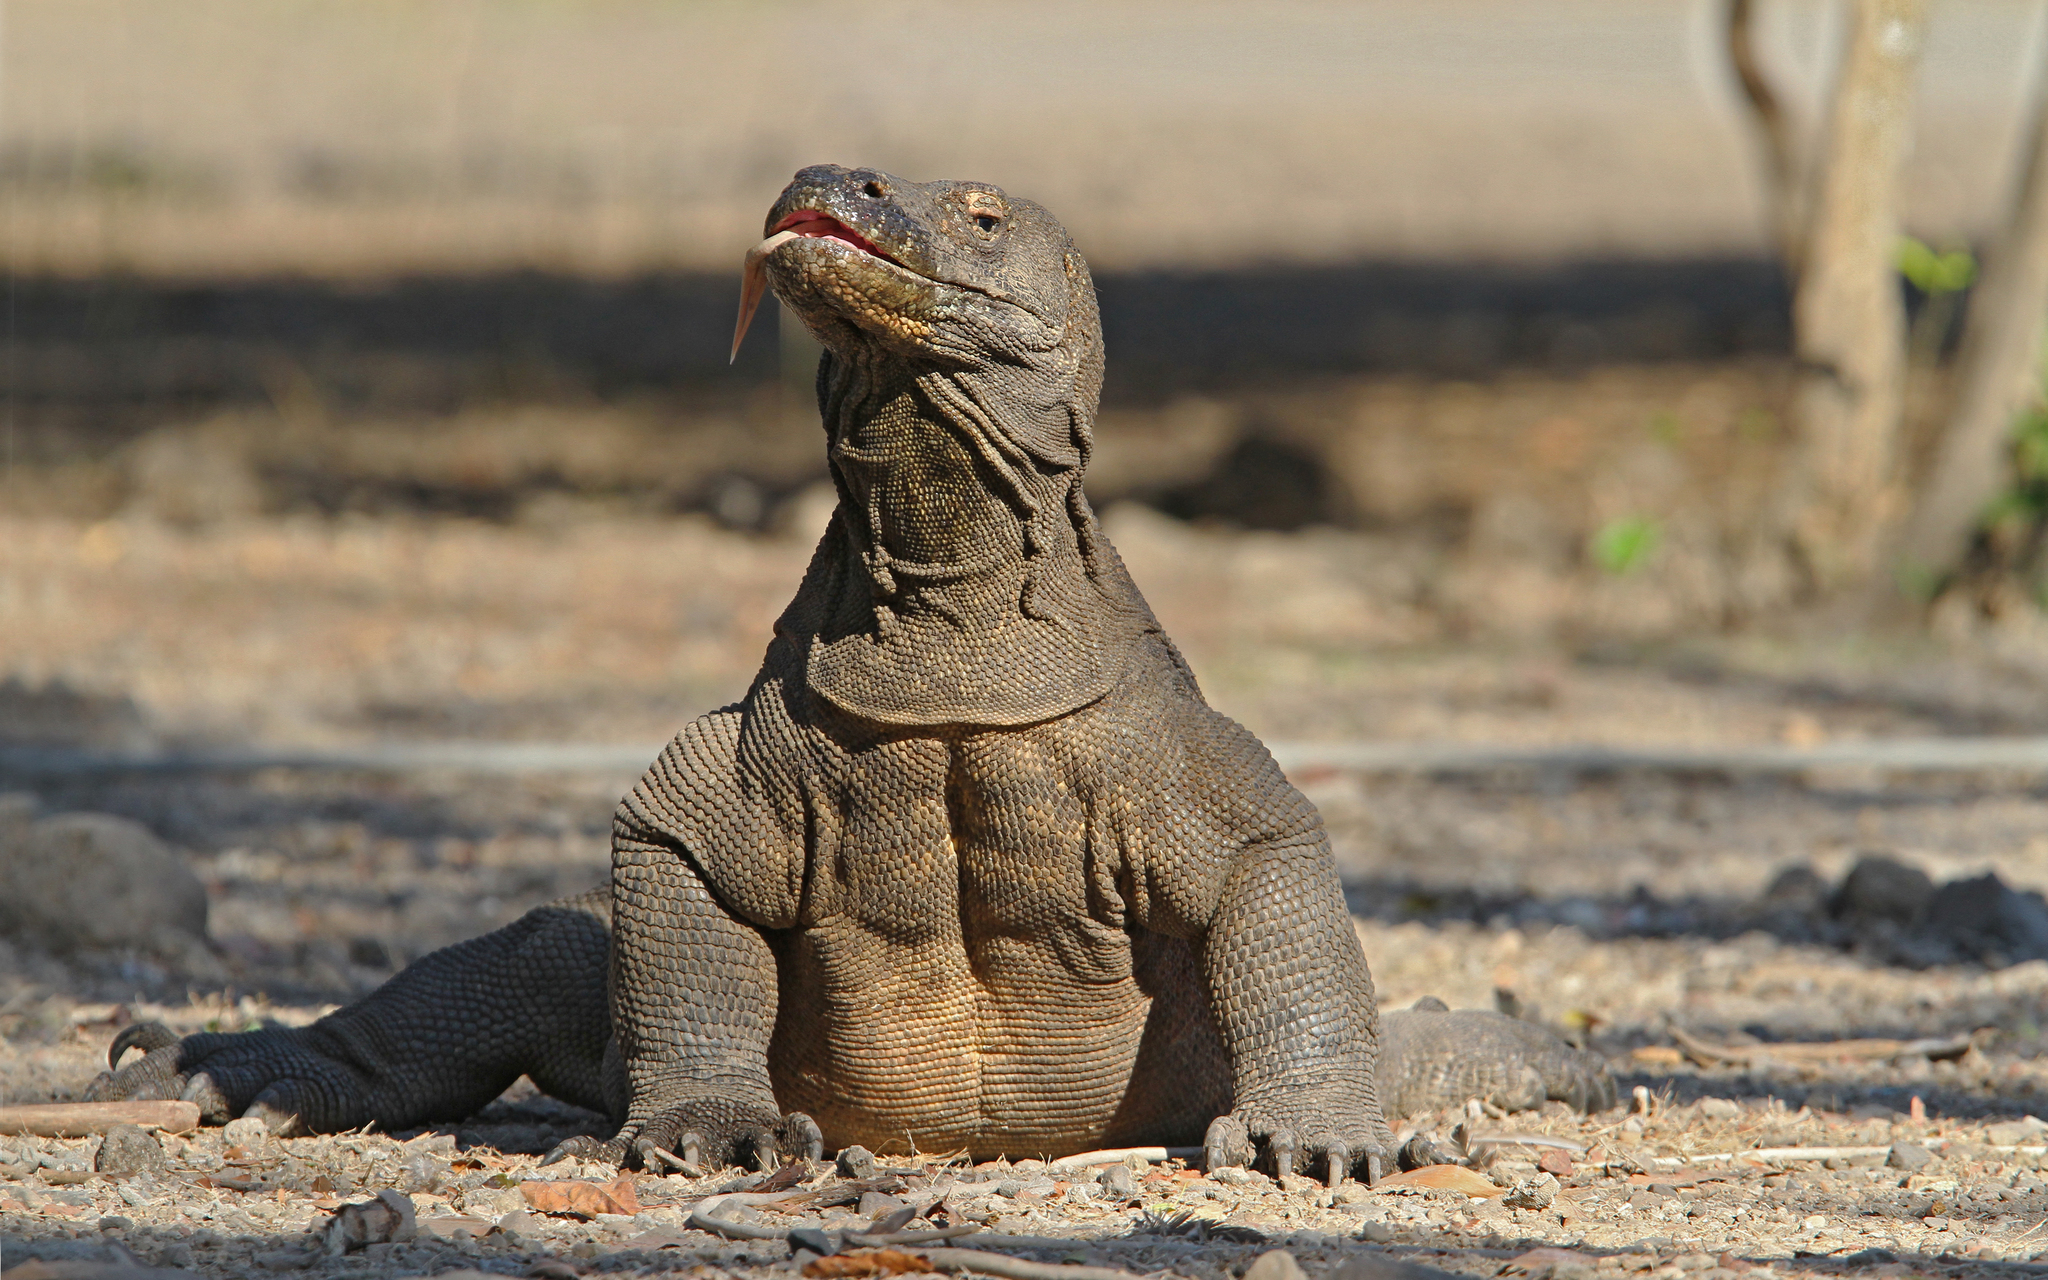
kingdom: Animalia
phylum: Chordata
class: Squamata
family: Varanidae
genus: Varanus
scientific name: Varanus komodoensis
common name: Komodo dragon
